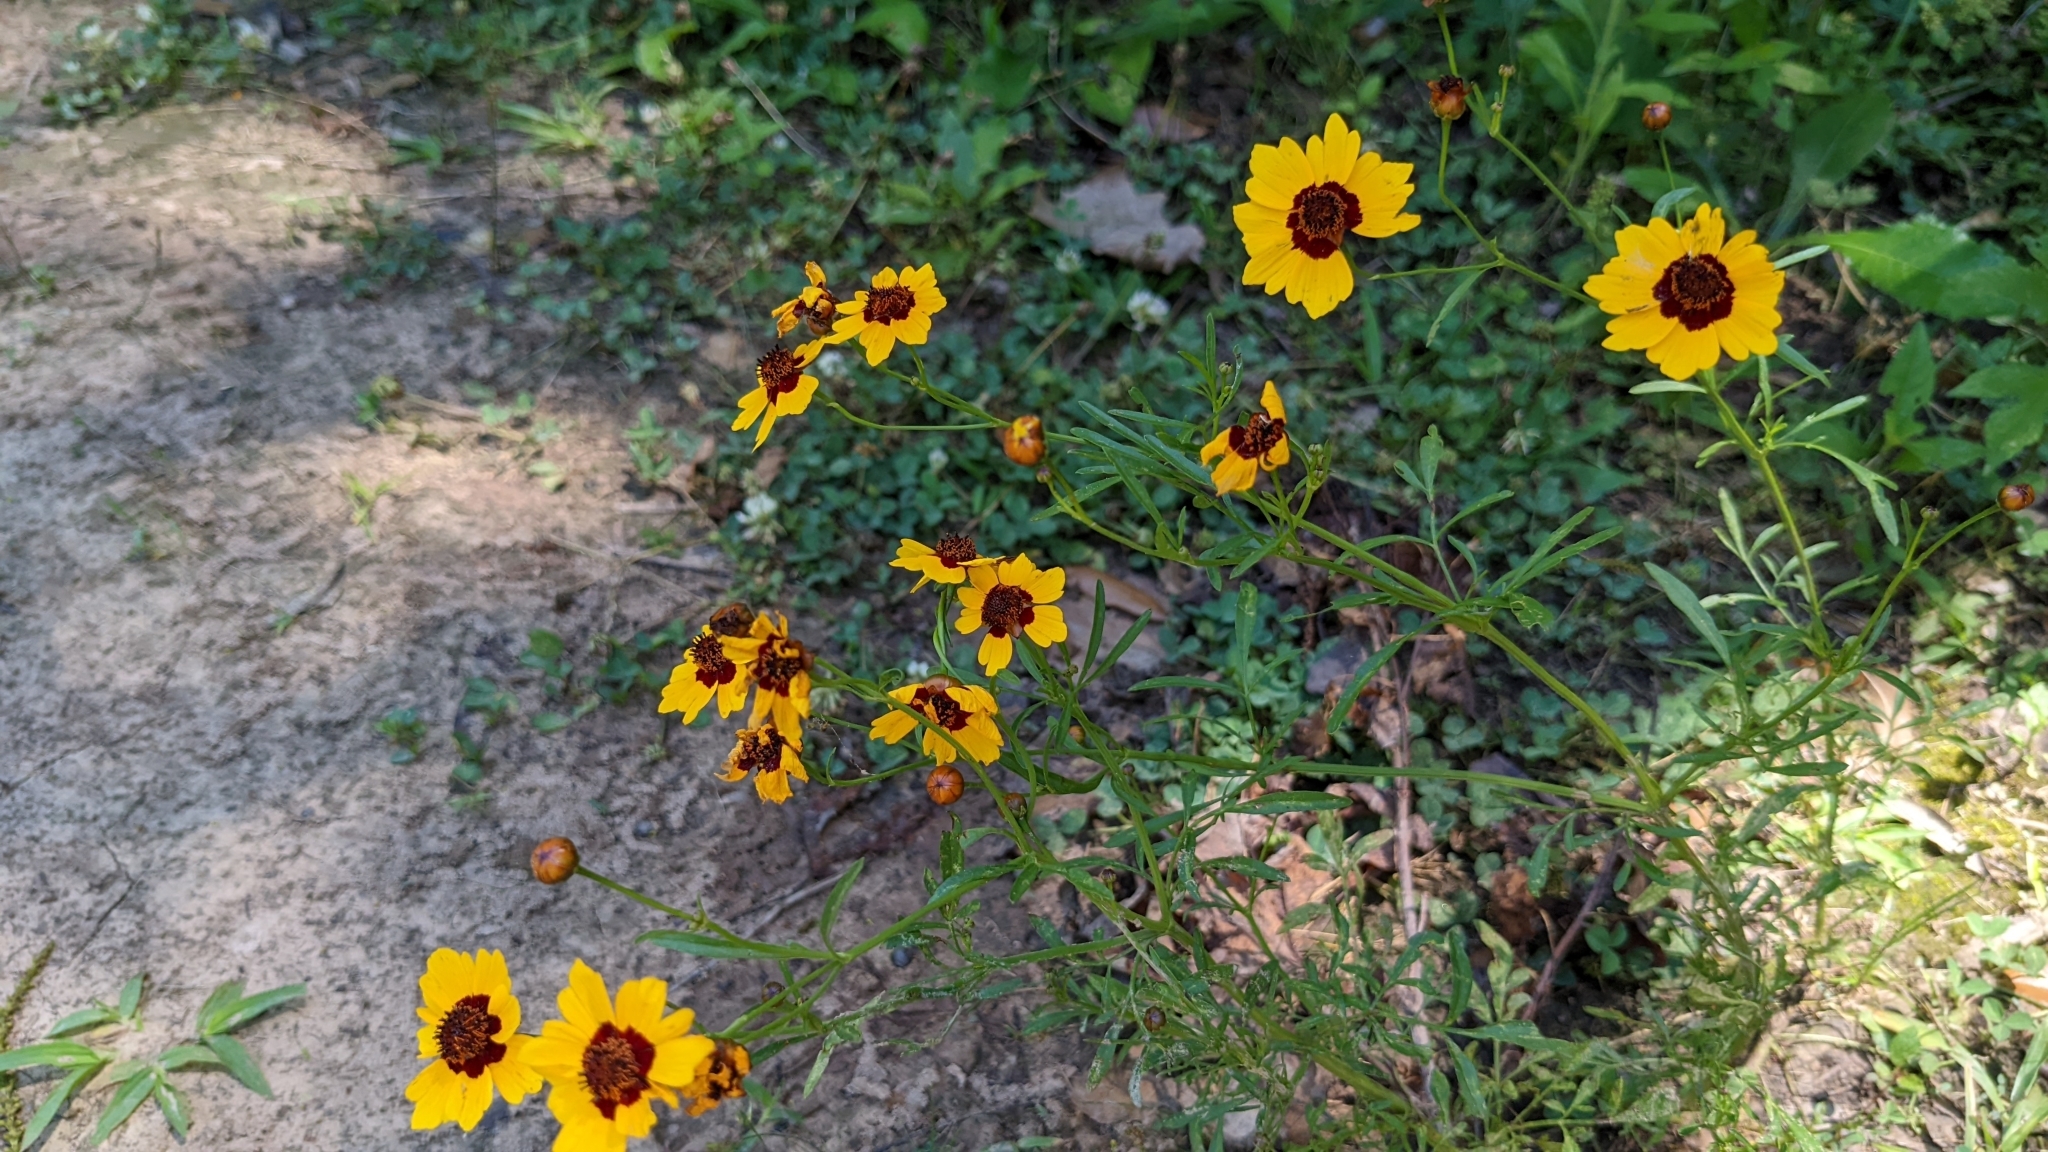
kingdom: Plantae
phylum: Tracheophyta
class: Magnoliopsida
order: Asterales
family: Asteraceae
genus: Coreopsis
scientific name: Coreopsis tinctoria
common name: Garden tickseed
